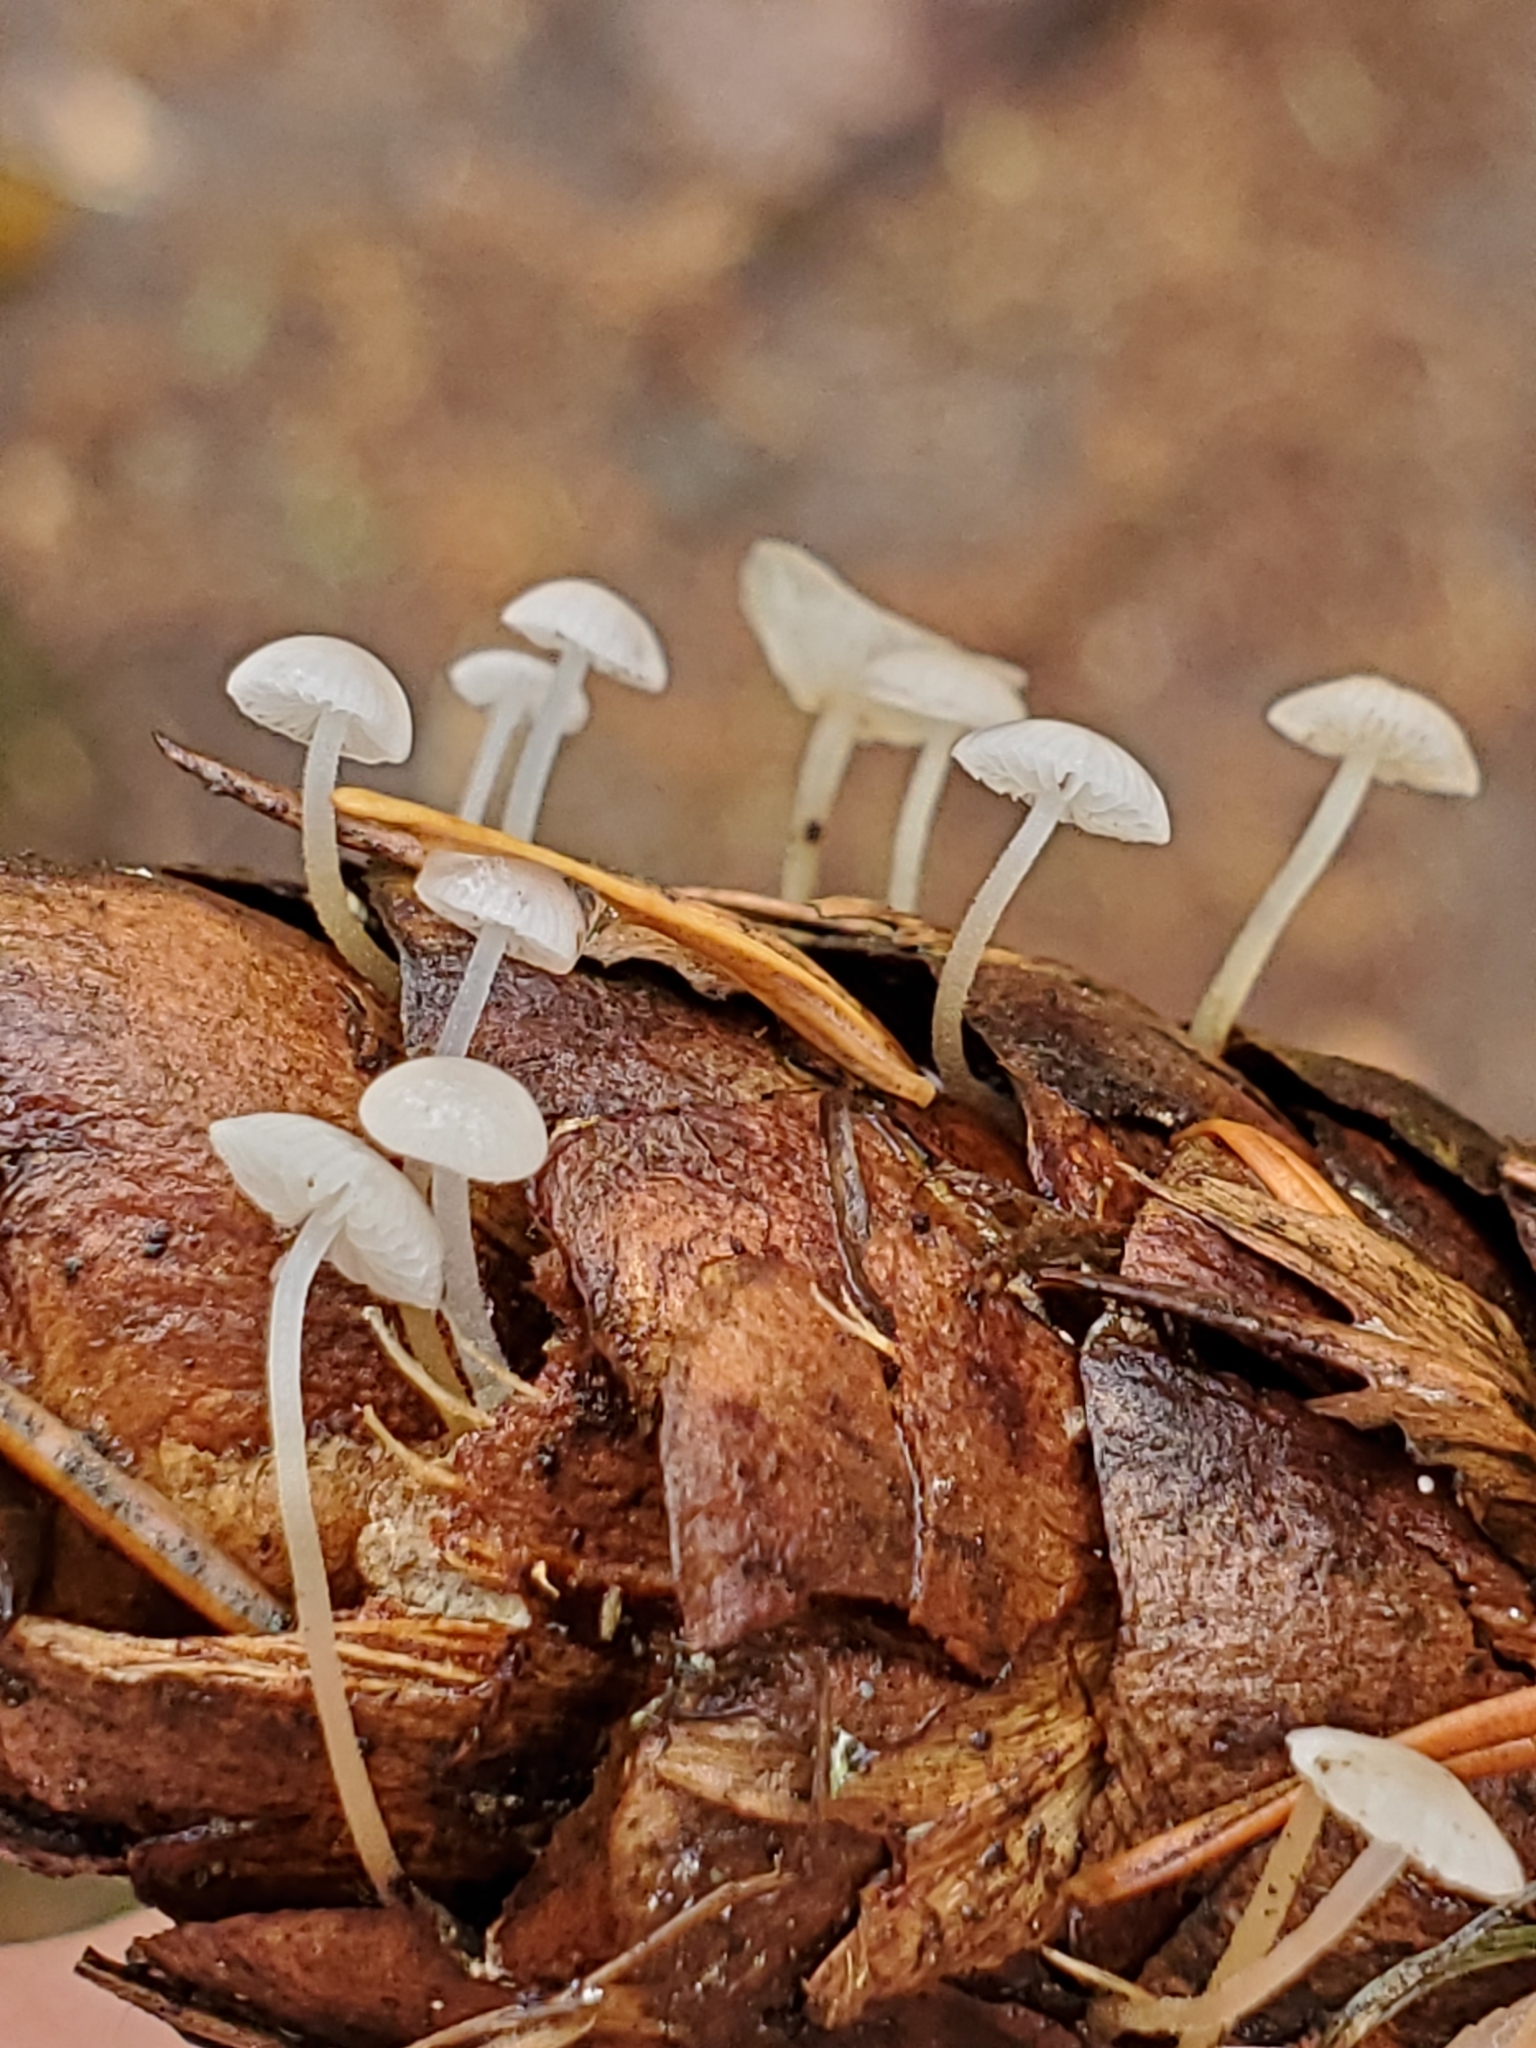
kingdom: Fungi
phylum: Basidiomycota
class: Agaricomycetes
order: Agaricales
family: Physalacriaceae
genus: Strobilurus
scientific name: Strobilurus trullisatus
